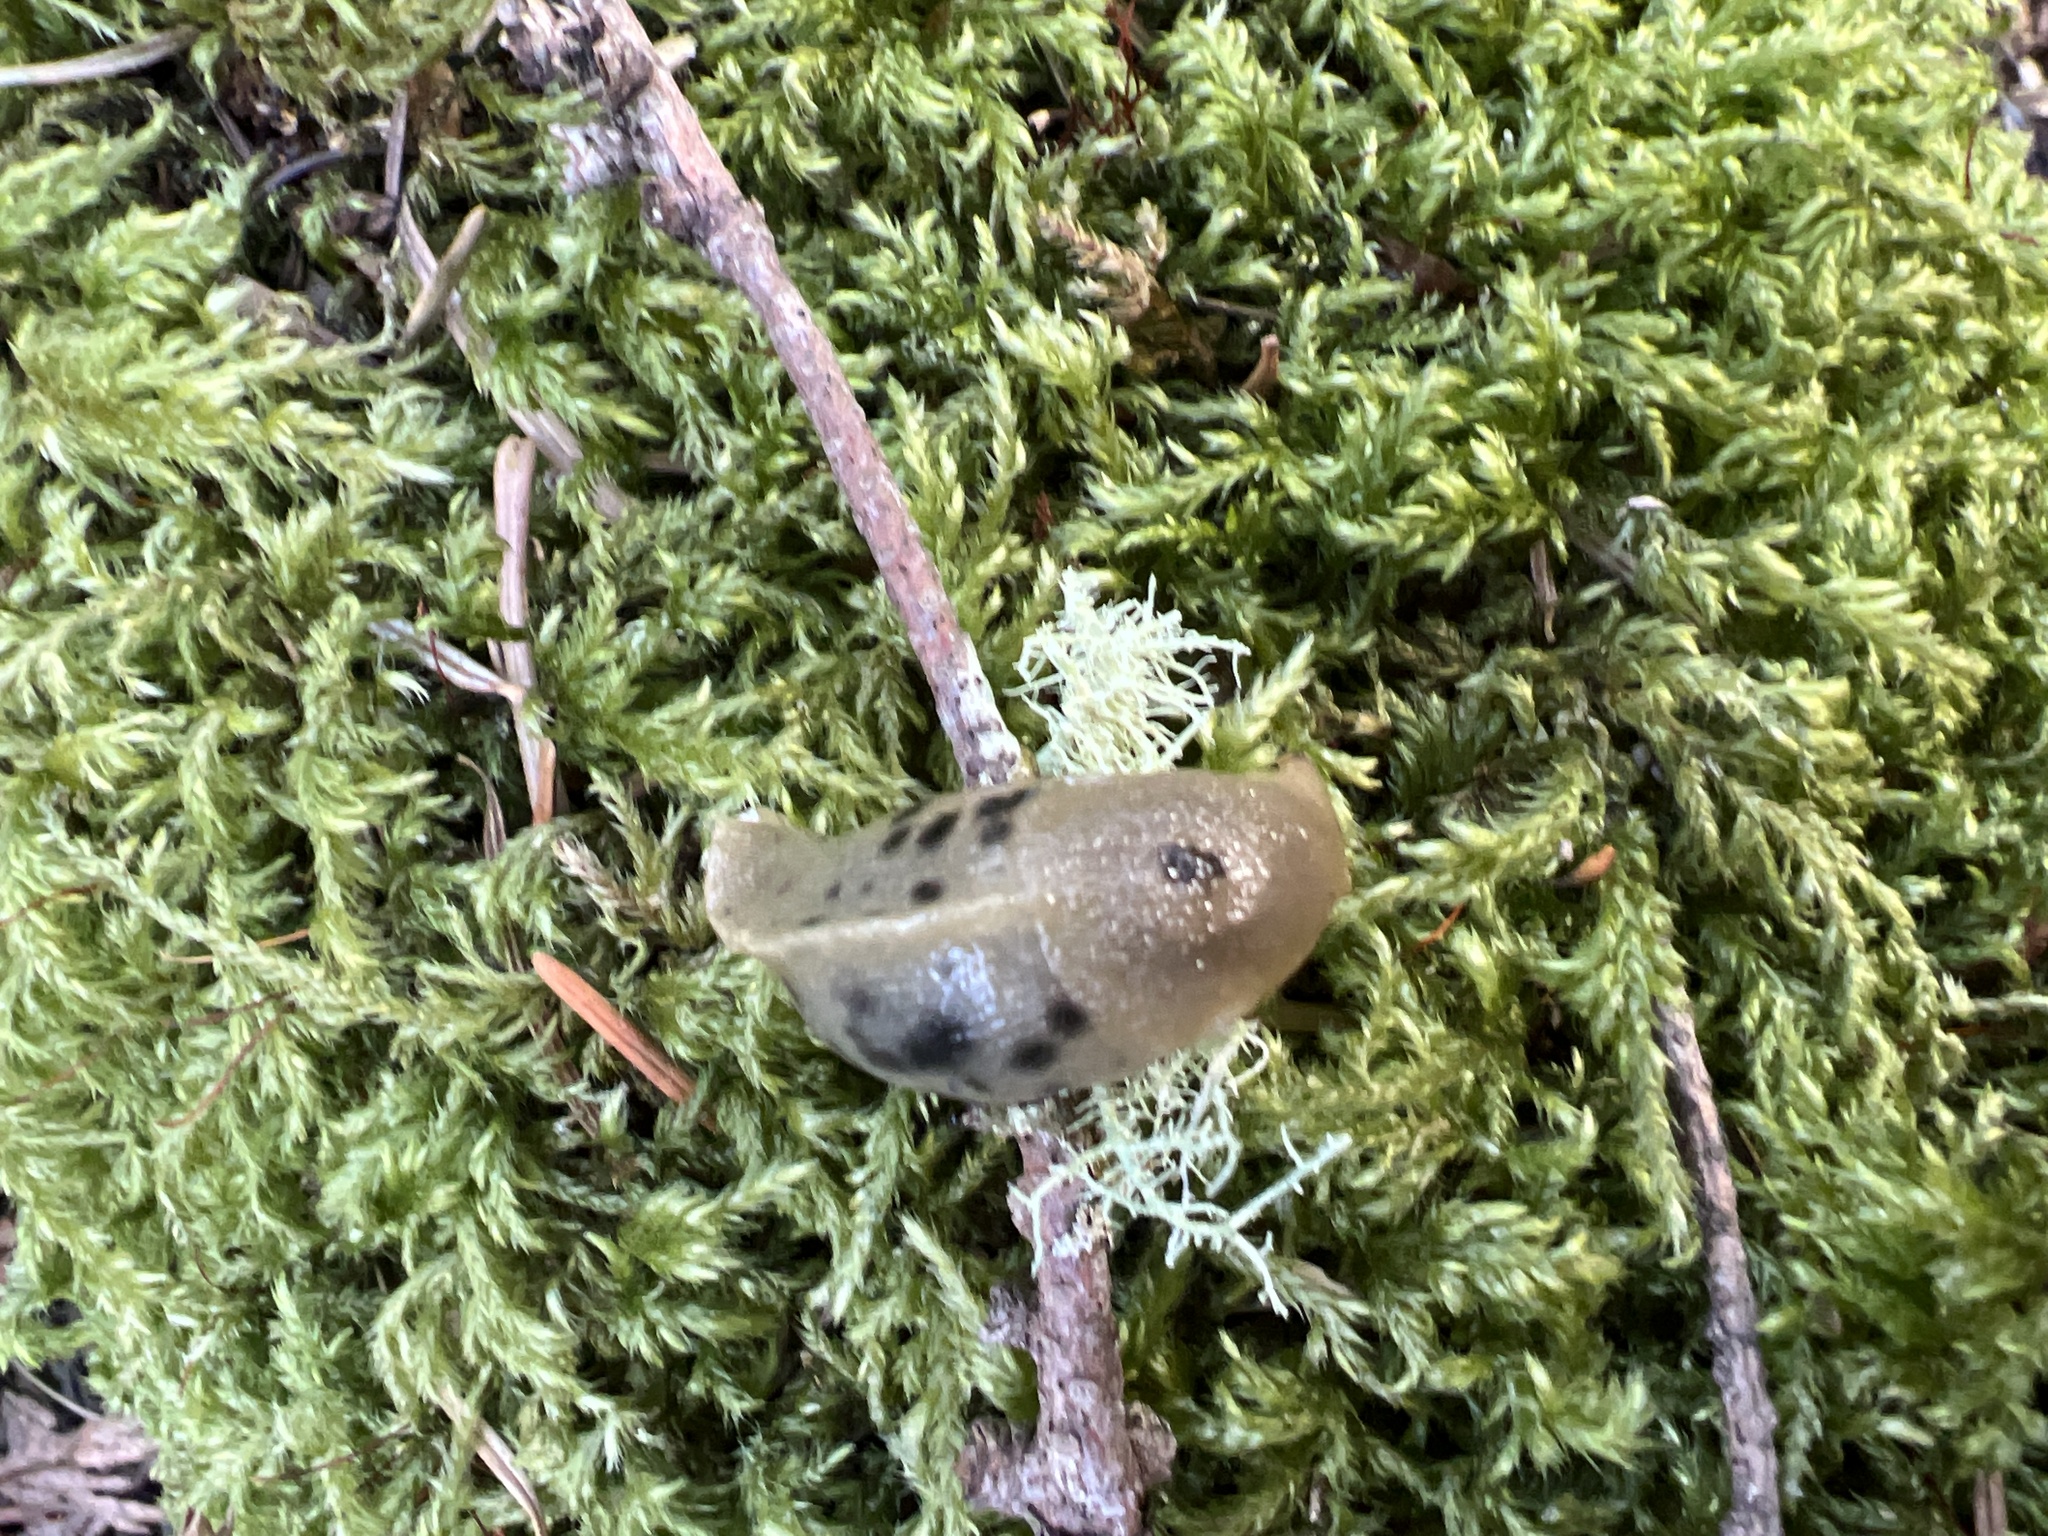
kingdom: Animalia
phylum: Mollusca
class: Gastropoda
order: Stylommatophora
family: Ariolimacidae
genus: Ariolimax
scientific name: Ariolimax columbianus
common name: Pacific banana slug
